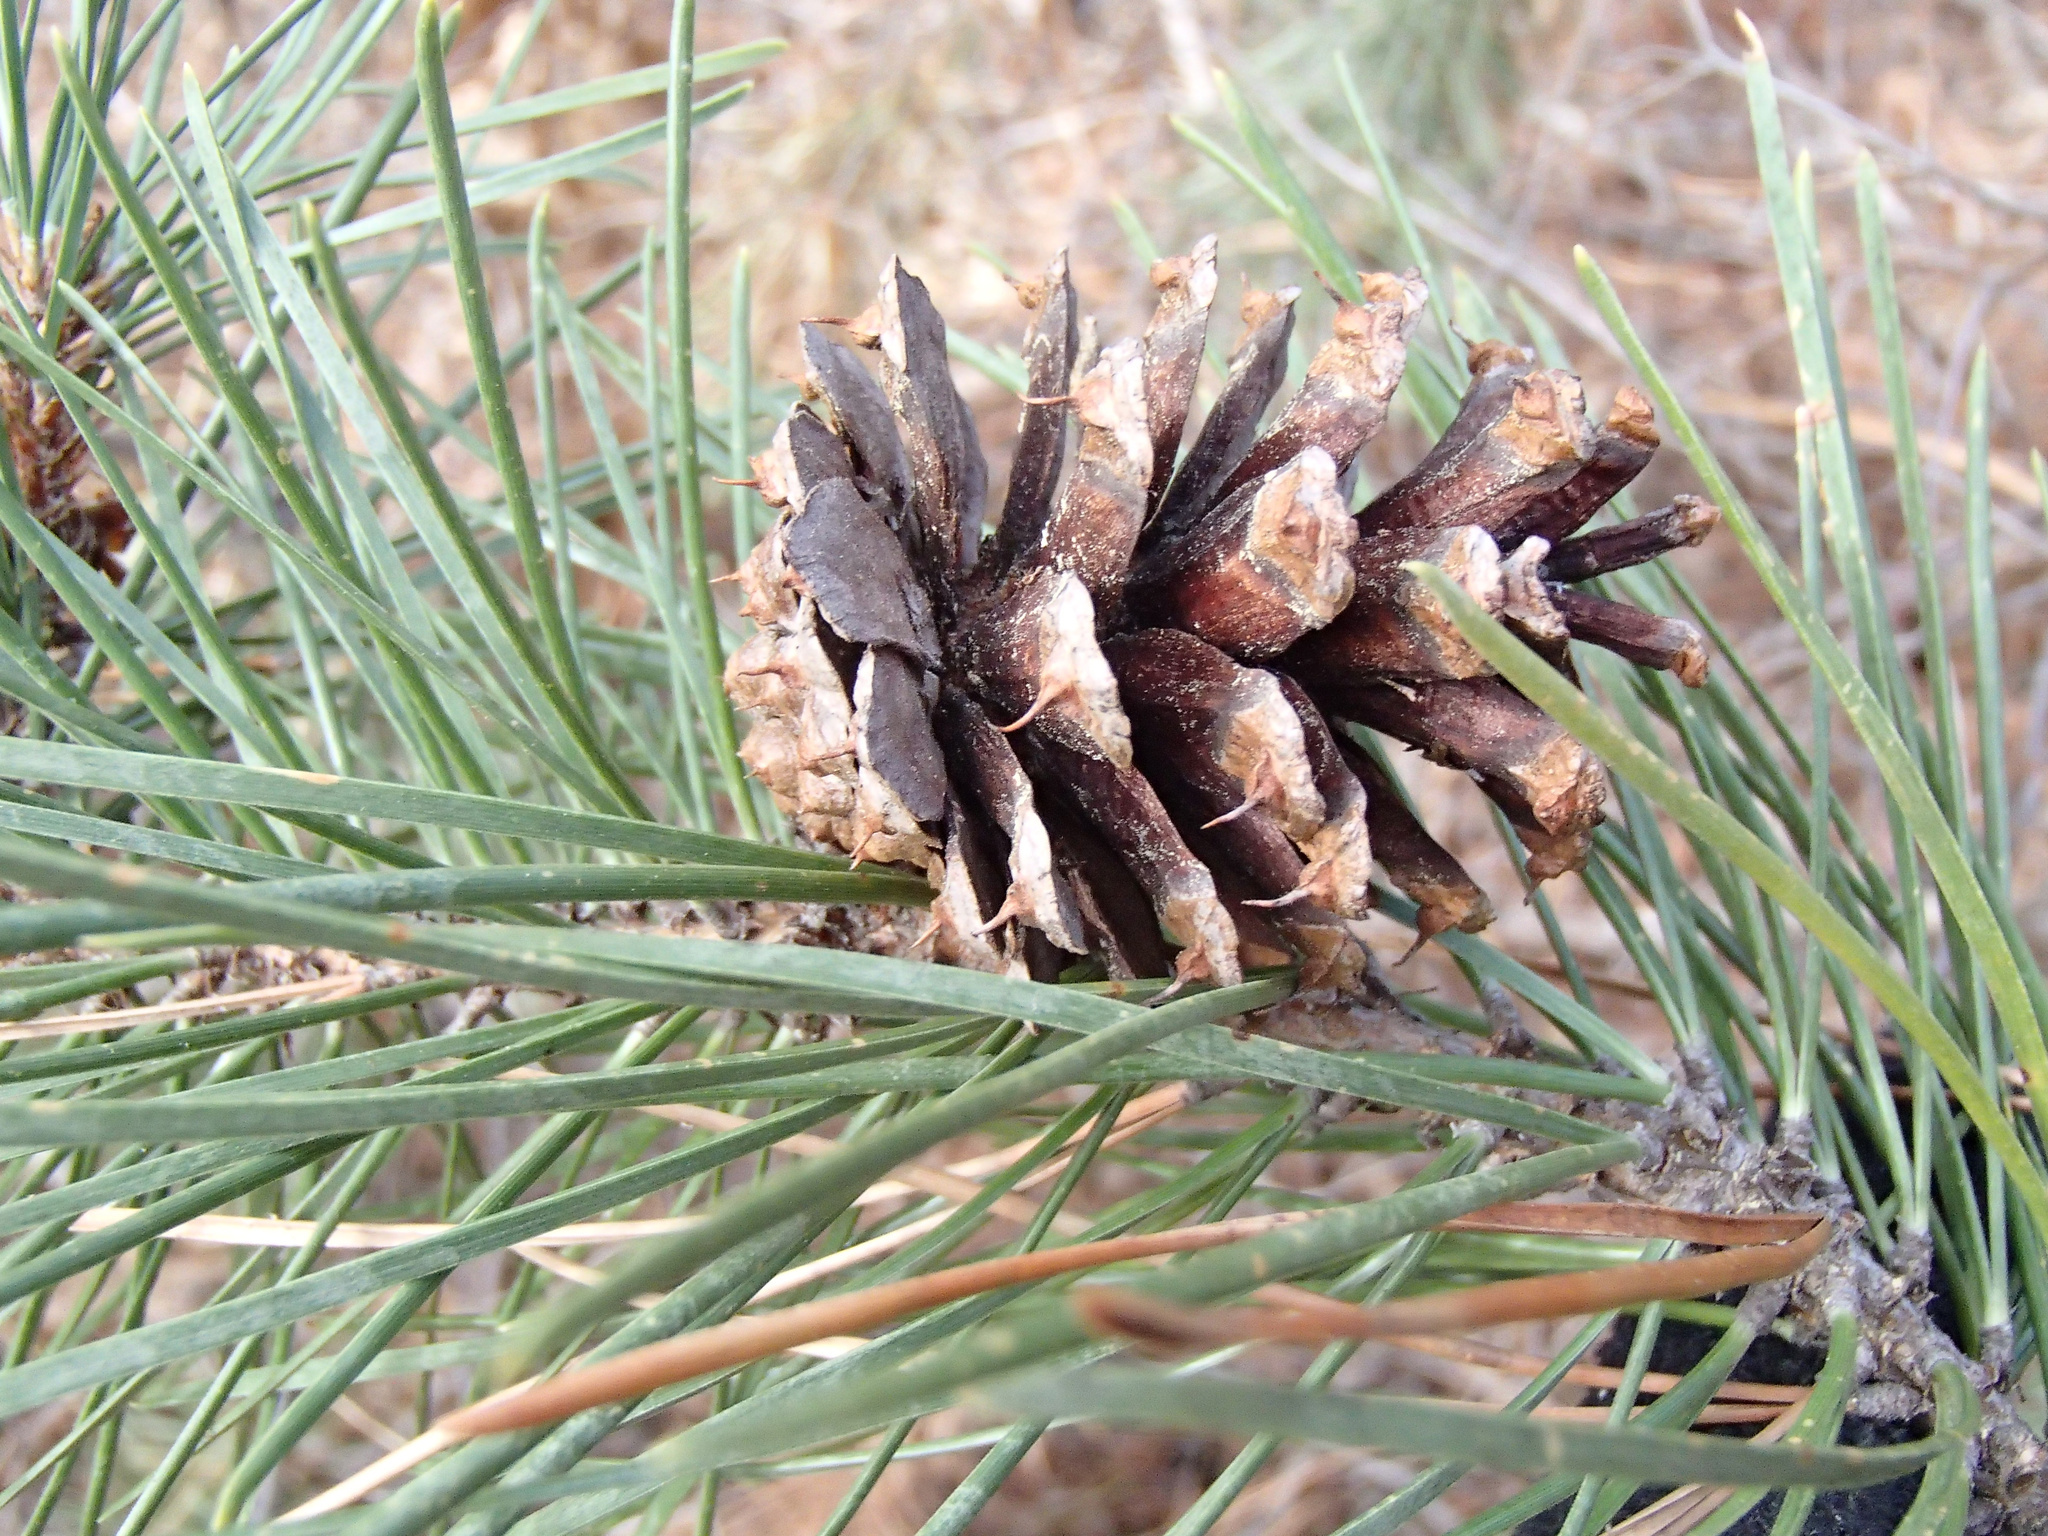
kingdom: Plantae
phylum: Tracheophyta
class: Pinopsida
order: Pinales
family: Pinaceae
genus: Pinus
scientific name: Pinus contorta
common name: Lodgepole pine
